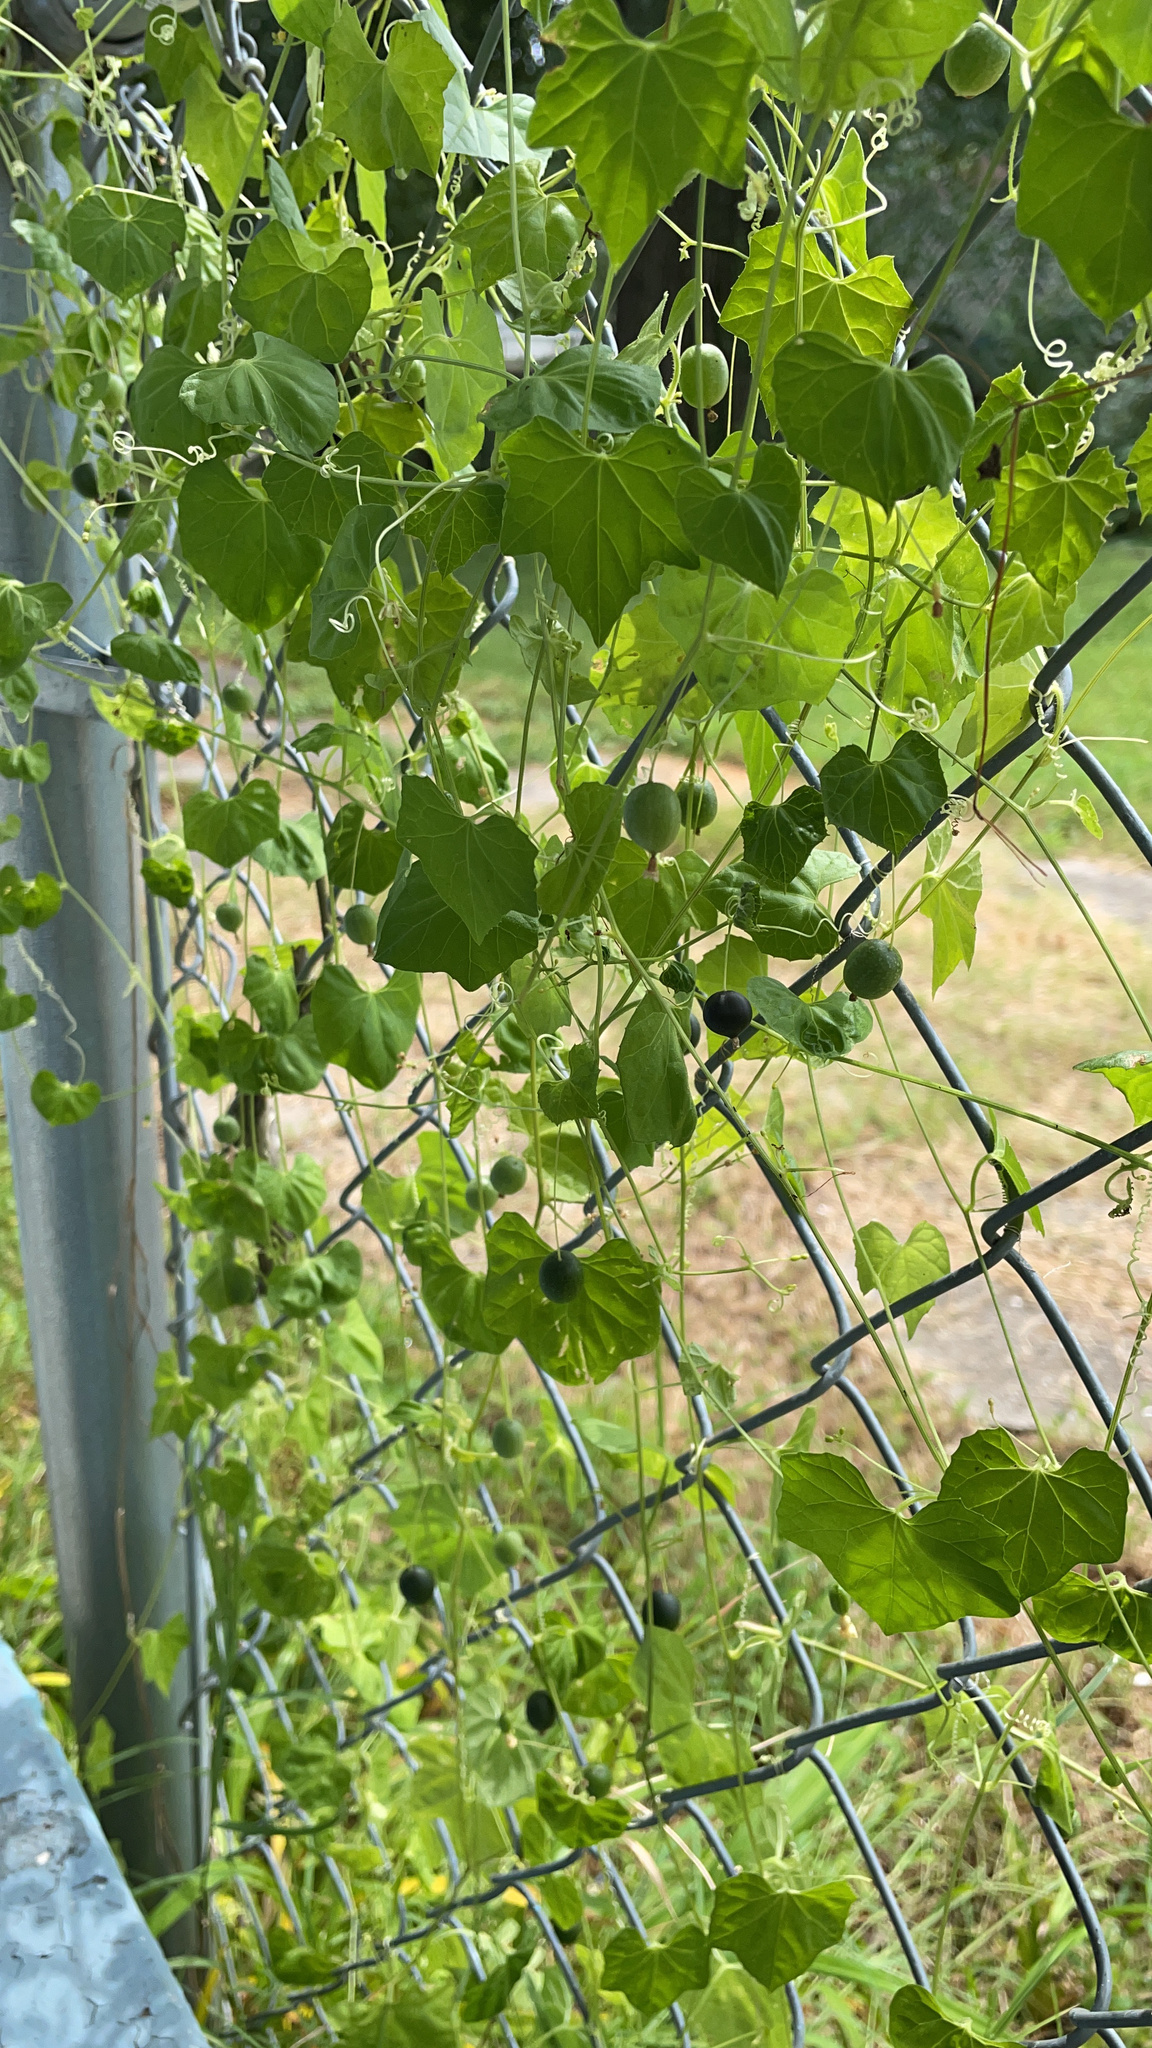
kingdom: Plantae
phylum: Tracheophyta
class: Magnoliopsida
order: Cucurbitales
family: Cucurbitaceae
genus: Melothria
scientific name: Melothria pendula
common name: Creeping-cucumber
